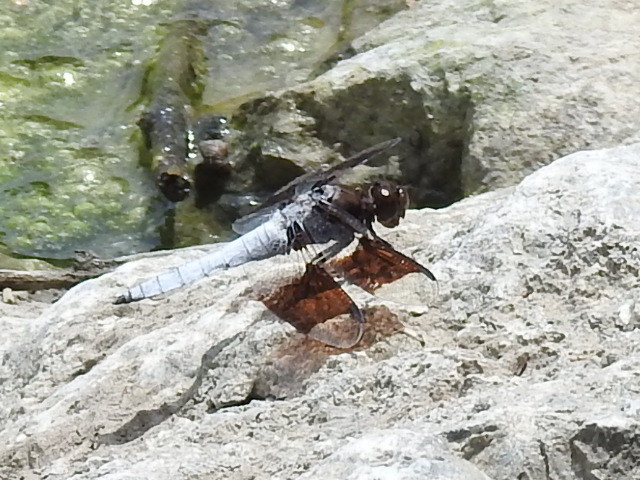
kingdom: Animalia
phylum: Arthropoda
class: Insecta
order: Odonata
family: Libellulidae
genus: Plathemis
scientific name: Plathemis lydia
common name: Common whitetail
